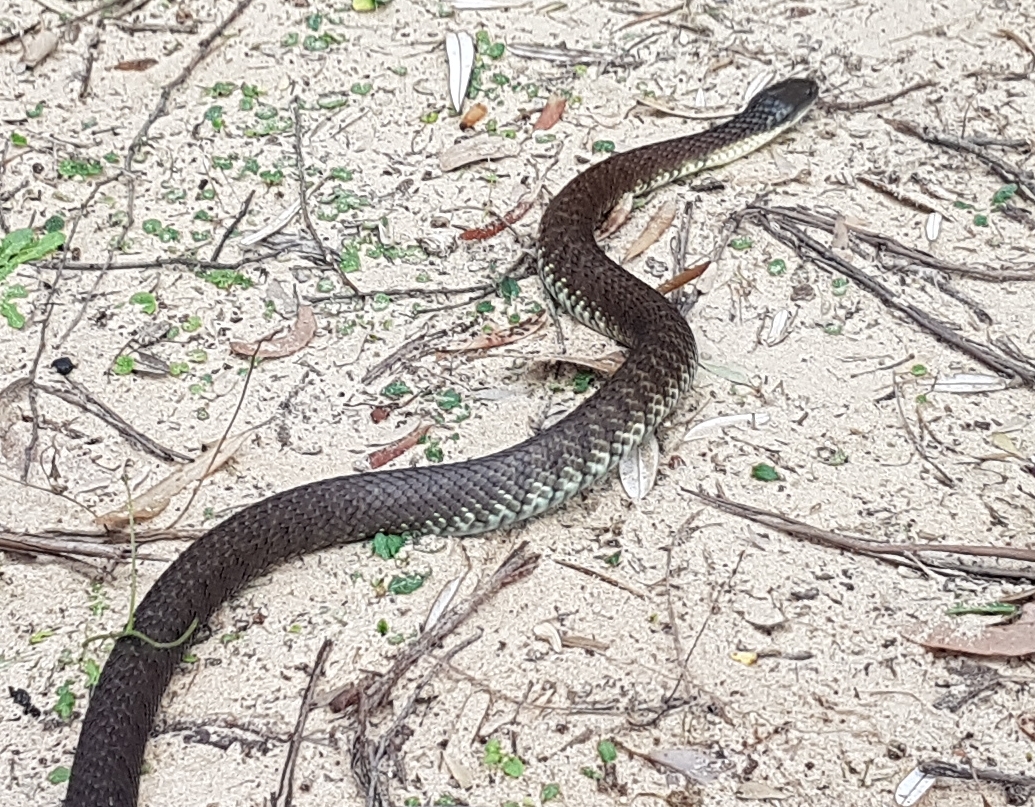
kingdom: Animalia
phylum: Chordata
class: Squamata
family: Elapidae
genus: Notechis
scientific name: Notechis scutatus
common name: Mainland tiger snake
